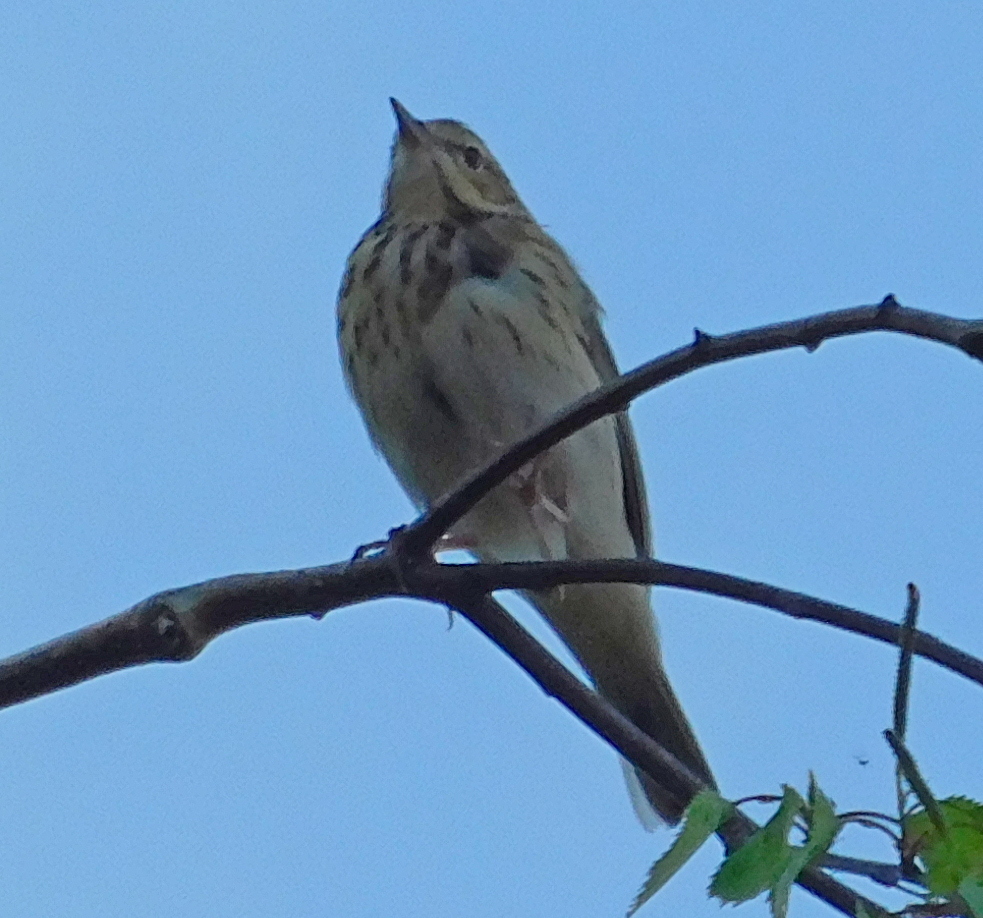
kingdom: Animalia
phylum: Chordata
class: Aves
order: Passeriformes
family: Motacillidae
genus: Anthus
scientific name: Anthus trivialis
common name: Tree pipit
